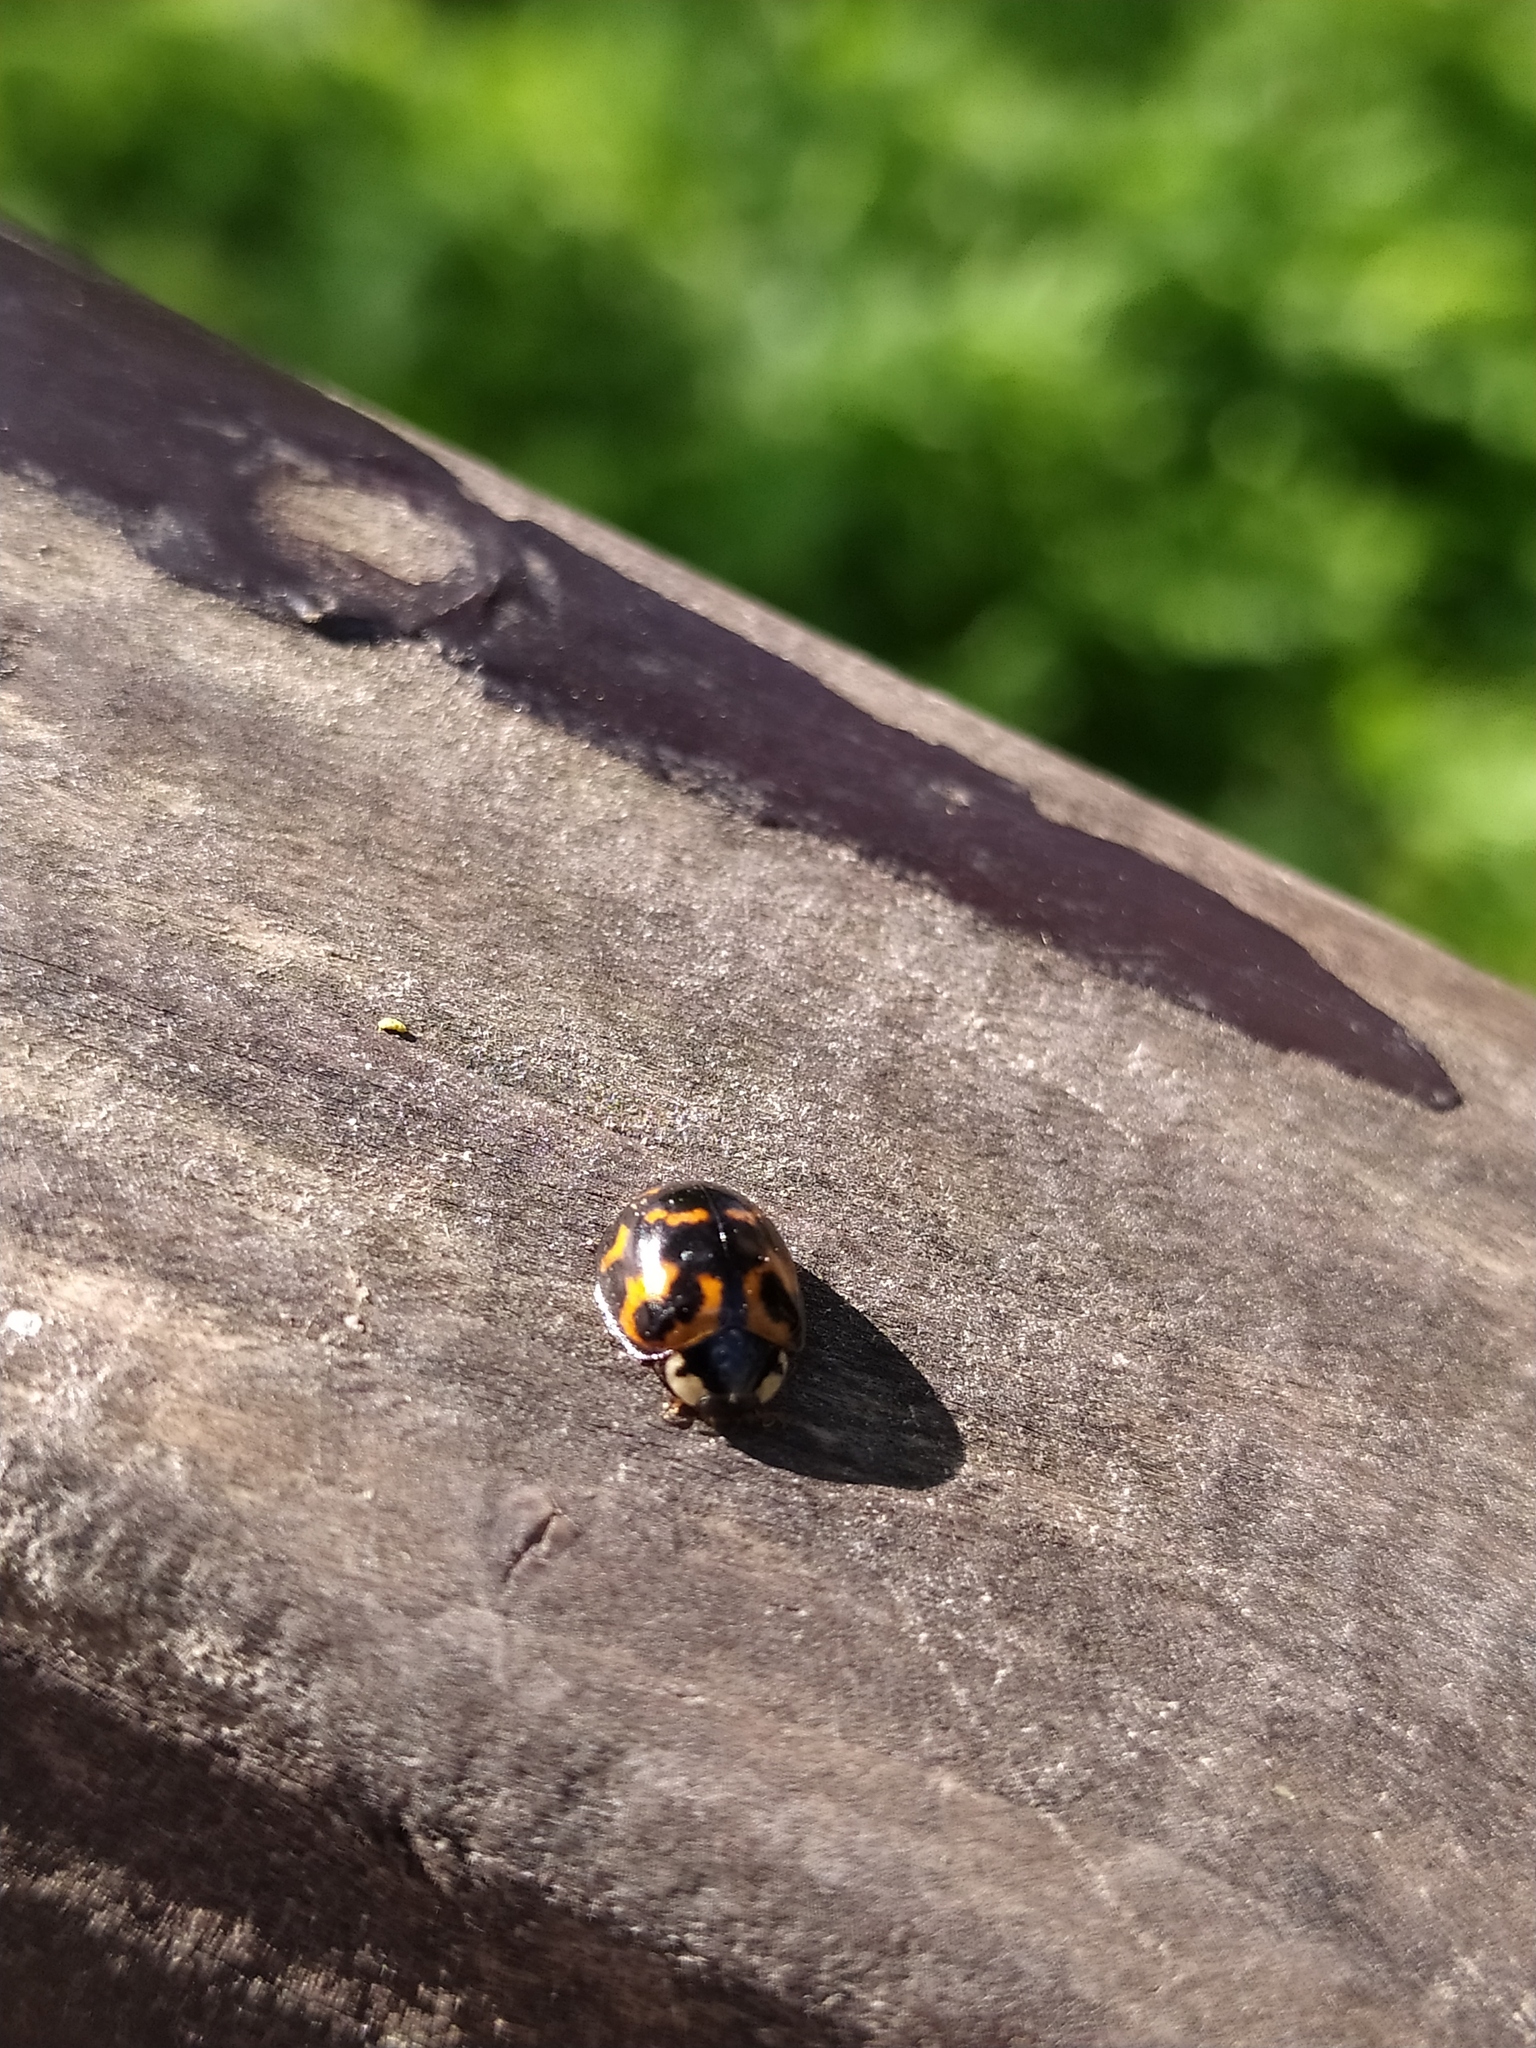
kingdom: Animalia
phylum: Arthropoda
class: Insecta
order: Coleoptera
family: Coccinellidae
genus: Harmonia
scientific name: Harmonia axyridis
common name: Harlequin ladybird
